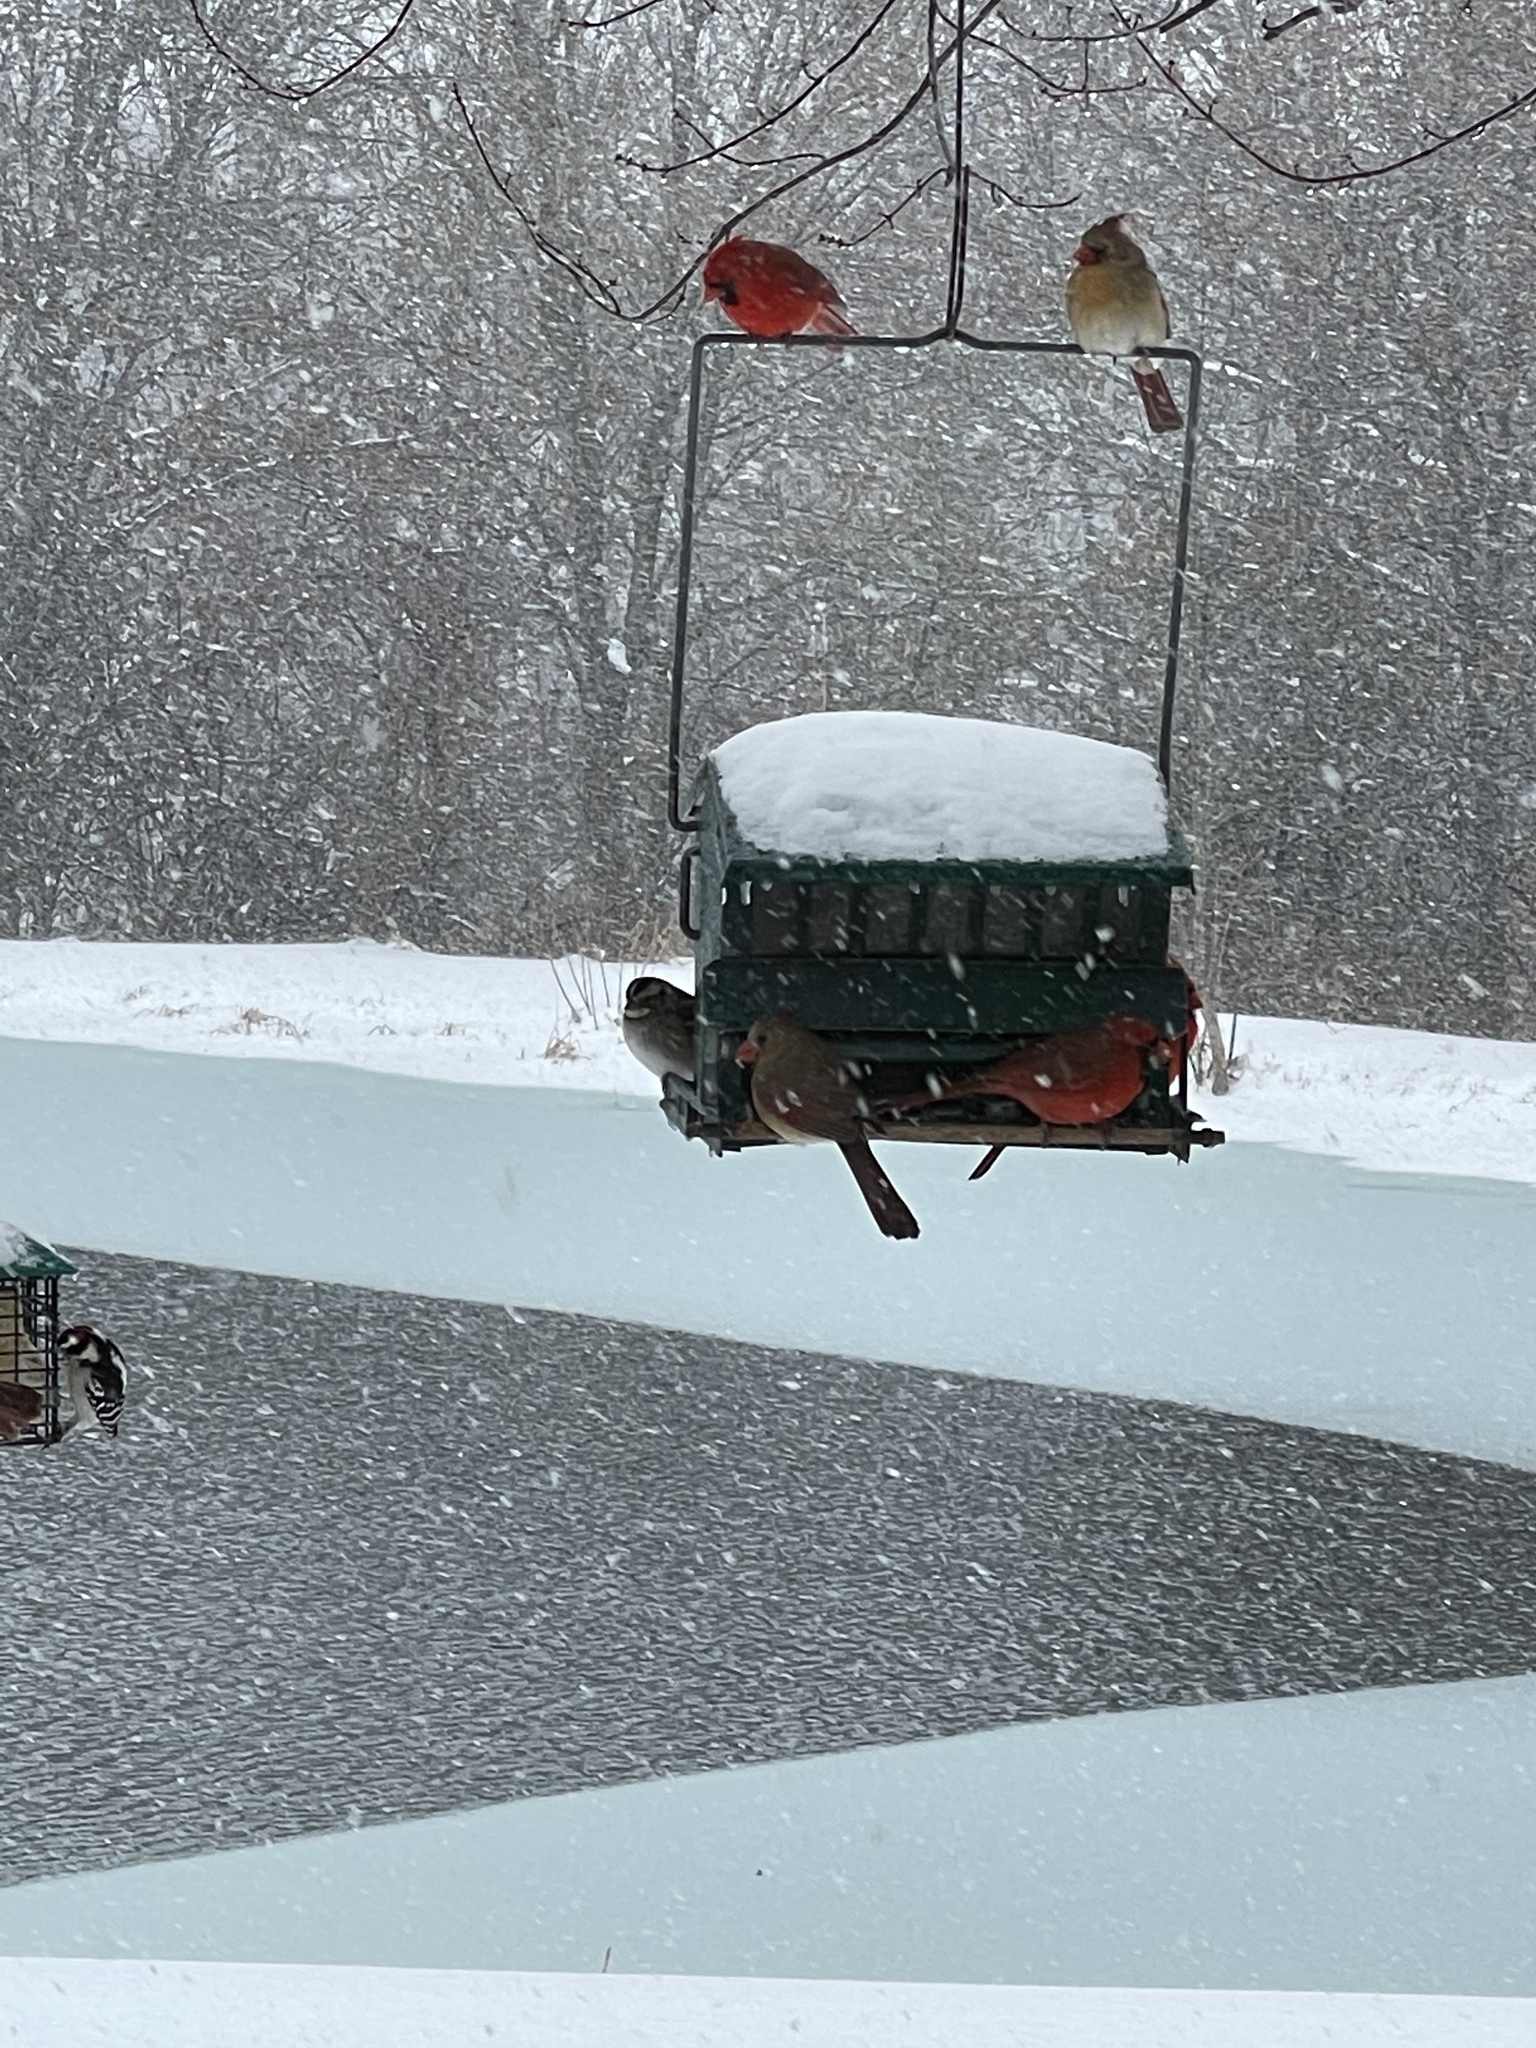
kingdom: Animalia
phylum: Chordata
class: Aves
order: Passeriformes
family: Cardinalidae
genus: Cardinalis
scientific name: Cardinalis cardinalis
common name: Northern cardinal
